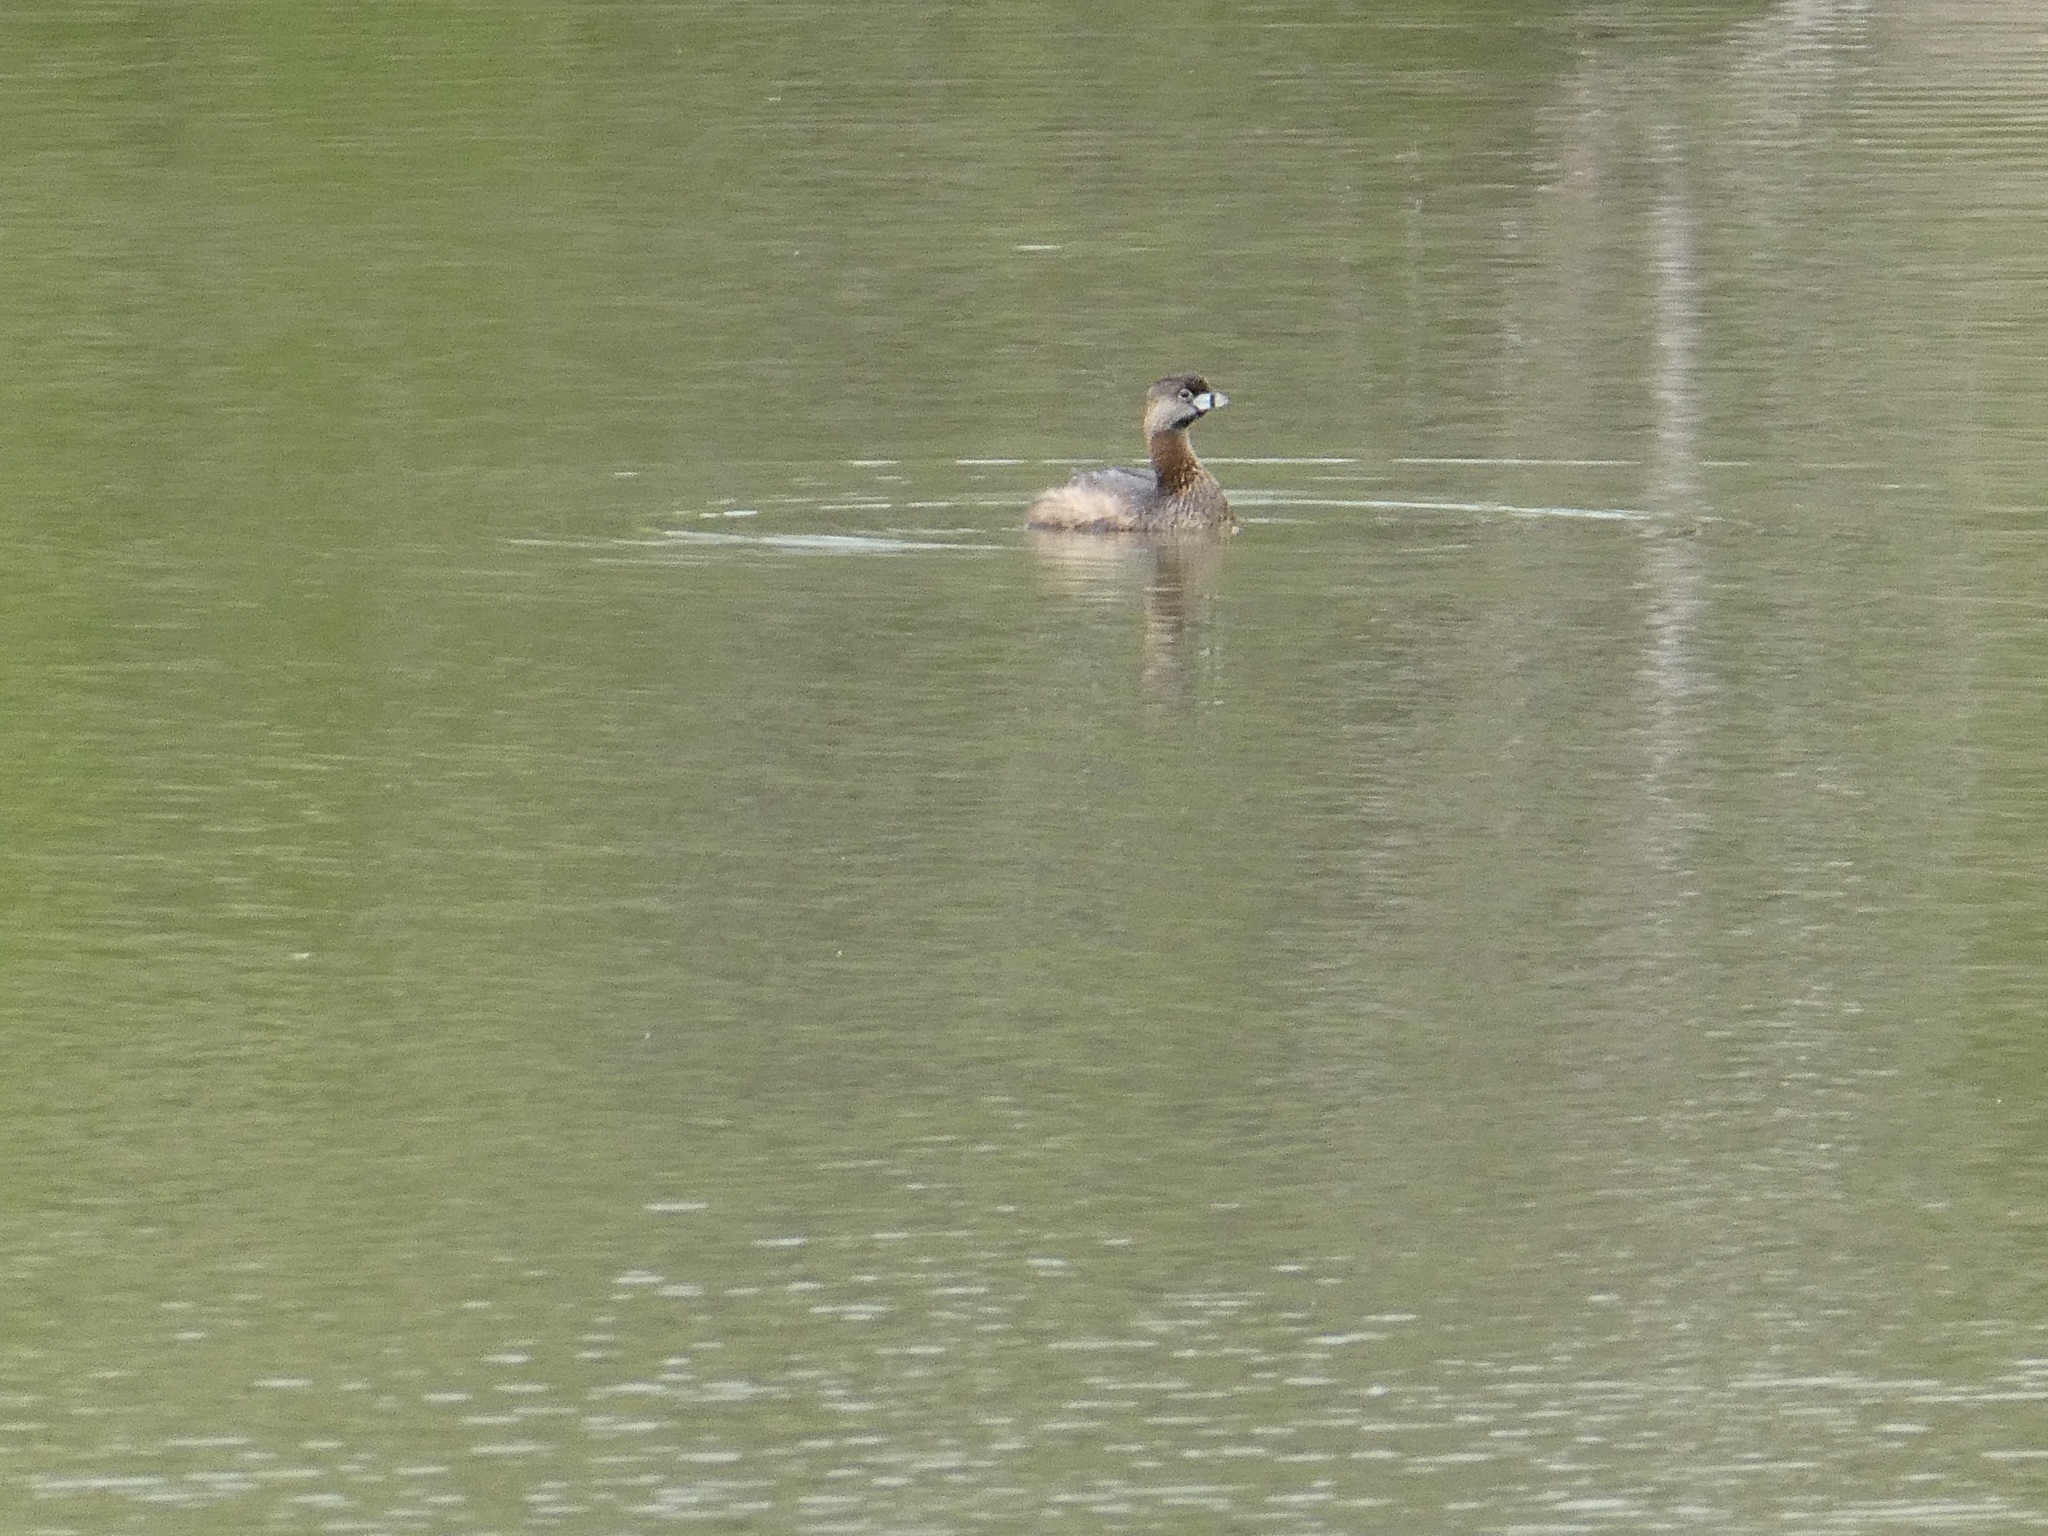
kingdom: Animalia
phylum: Chordata
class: Aves
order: Podicipediformes
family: Podicipedidae
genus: Podilymbus
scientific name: Podilymbus podiceps
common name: Pied-billed grebe
